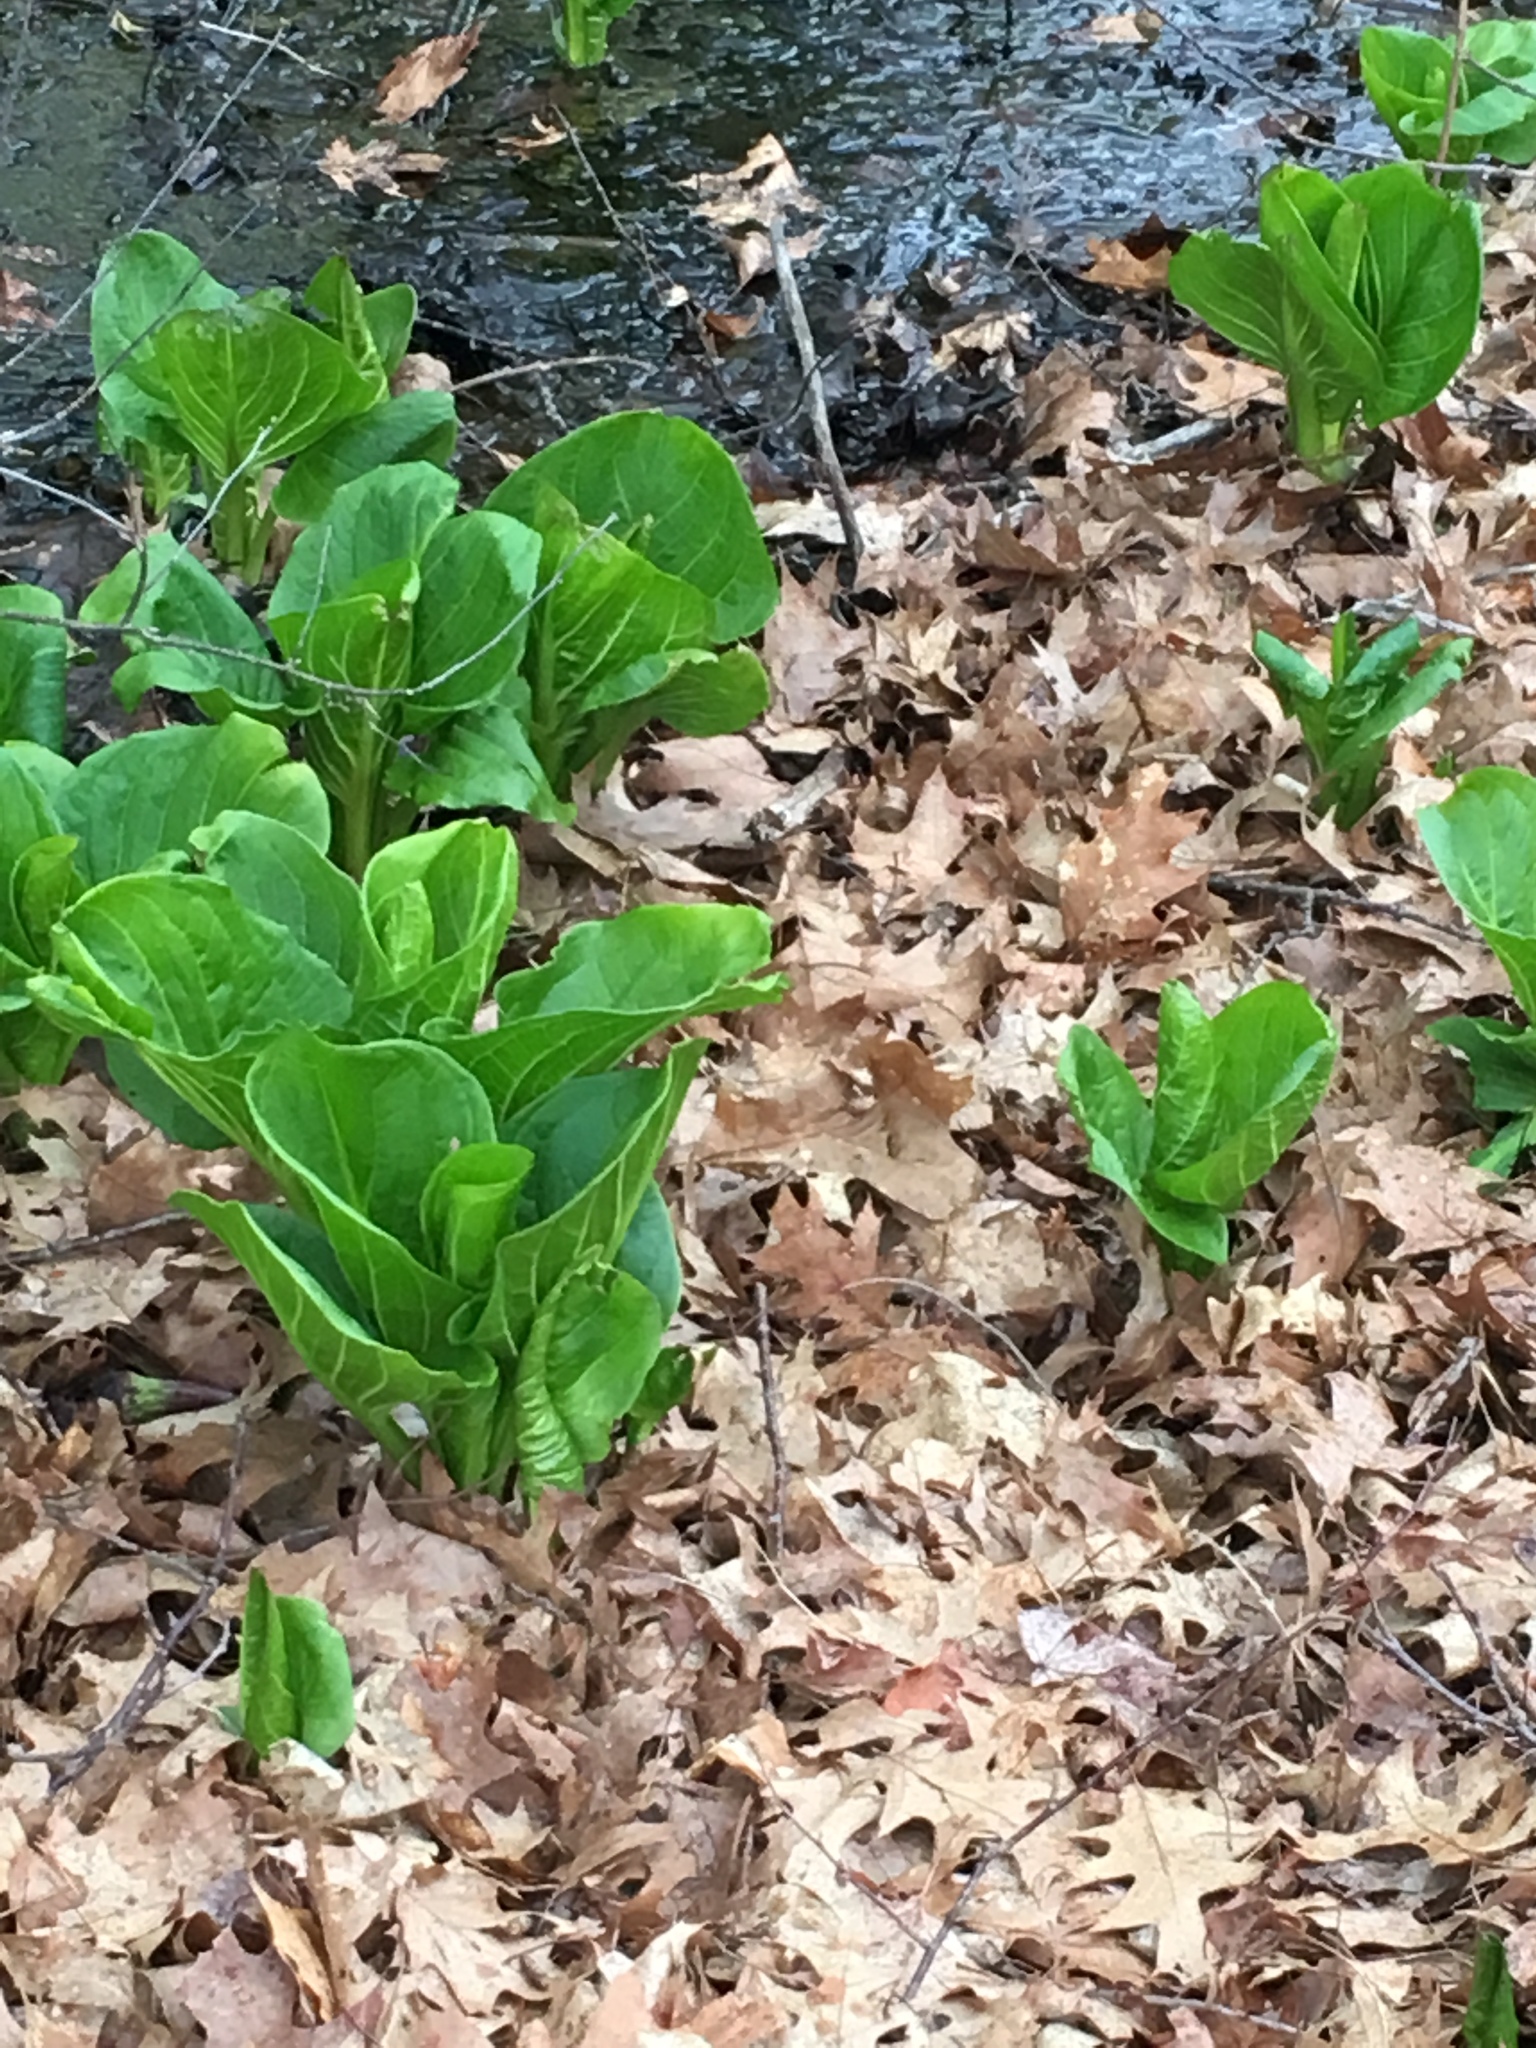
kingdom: Plantae
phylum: Tracheophyta
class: Liliopsida
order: Alismatales
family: Araceae
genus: Symplocarpus
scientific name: Symplocarpus foetidus
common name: Eastern skunk cabbage
